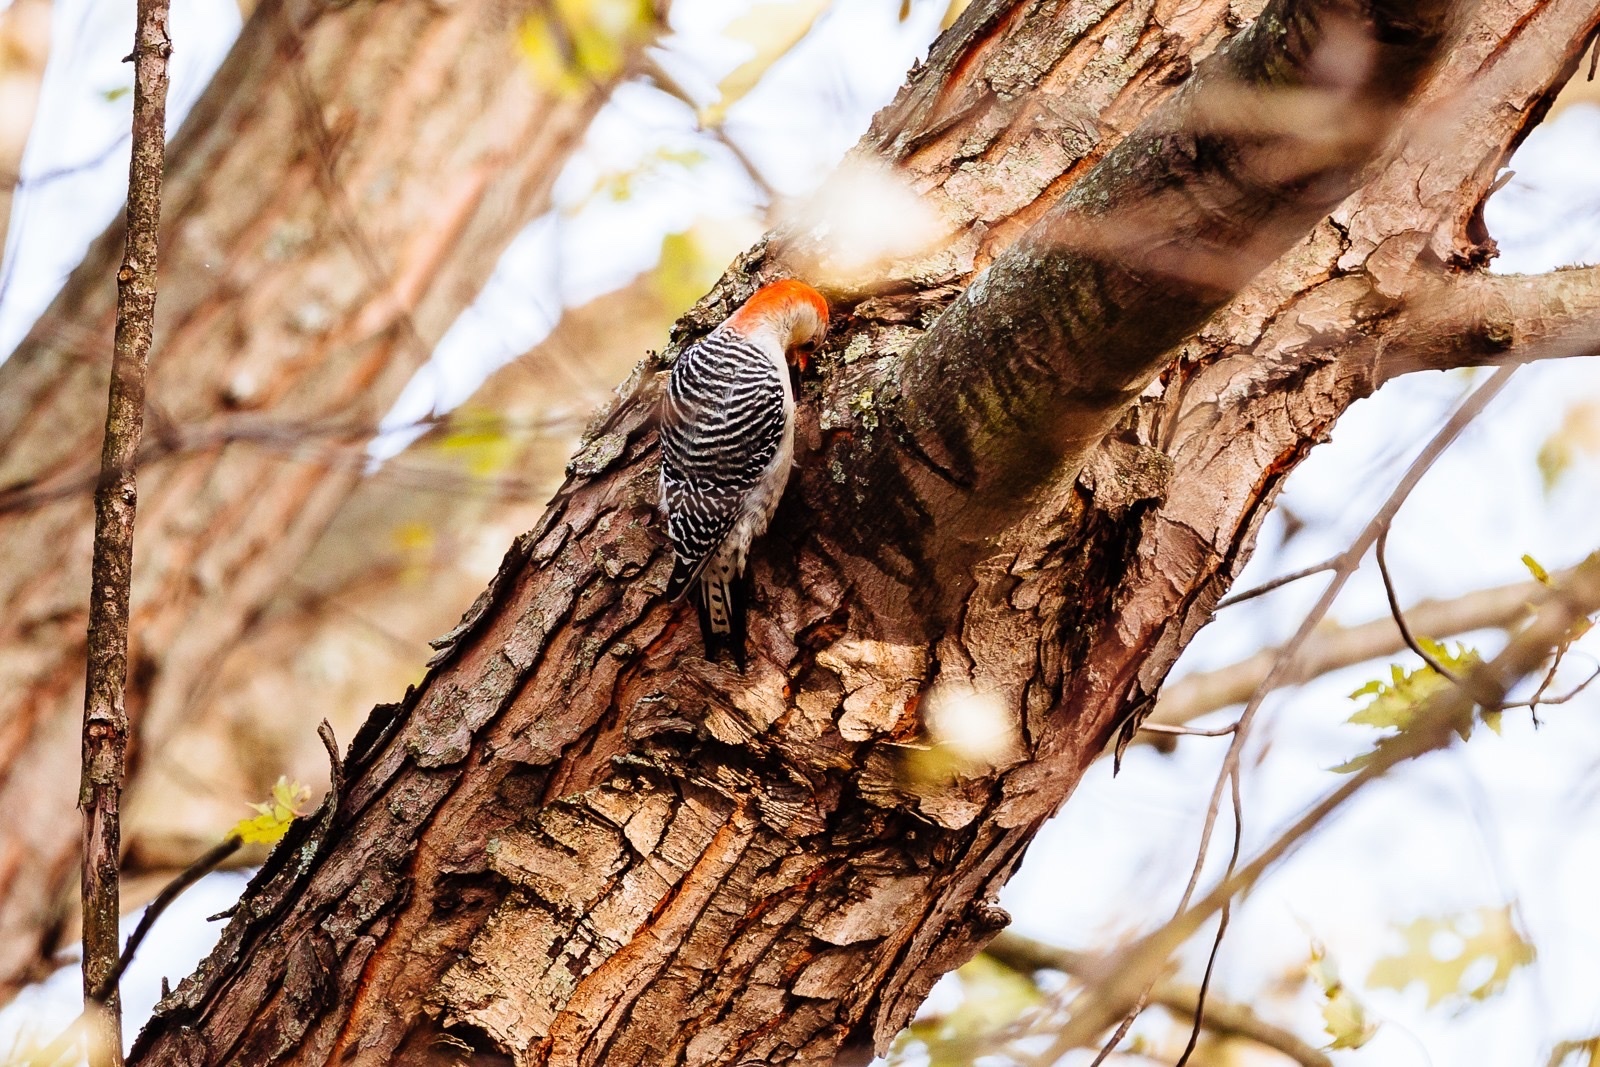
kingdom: Animalia
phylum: Chordata
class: Aves
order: Piciformes
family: Picidae
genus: Melanerpes
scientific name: Melanerpes carolinus
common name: Red-bellied woodpecker
